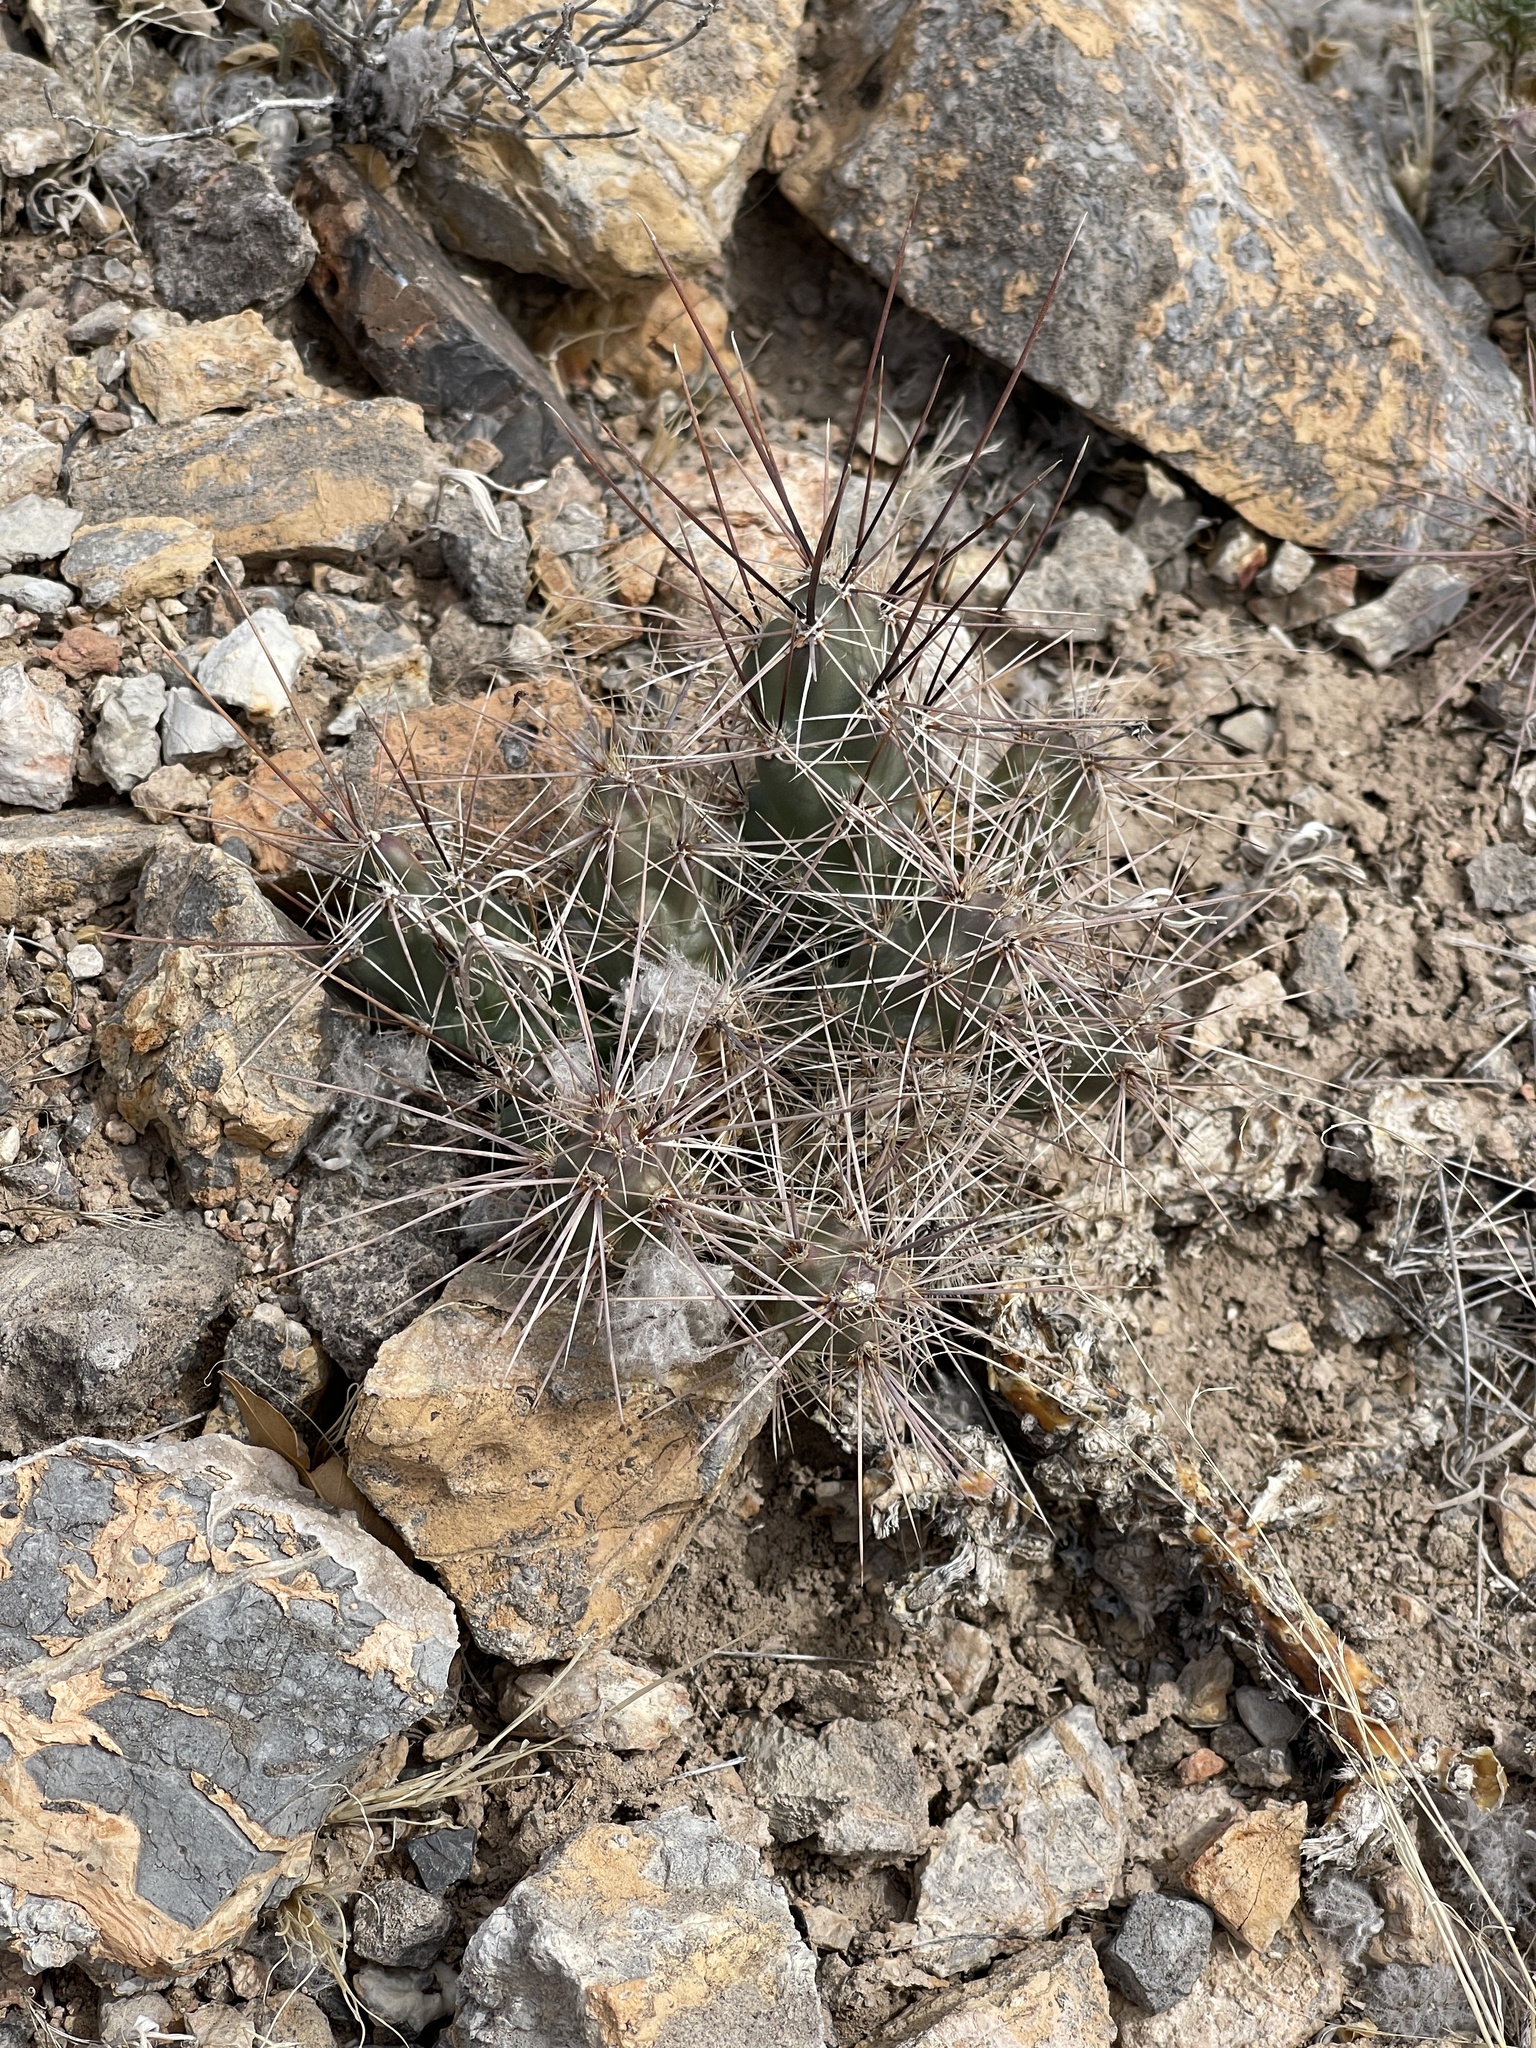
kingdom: Plantae
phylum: Tracheophyta
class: Magnoliopsida
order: Caryophyllales
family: Cactaceae
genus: Grusonia
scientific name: Grusonia grahamii
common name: Graham's club cactus
